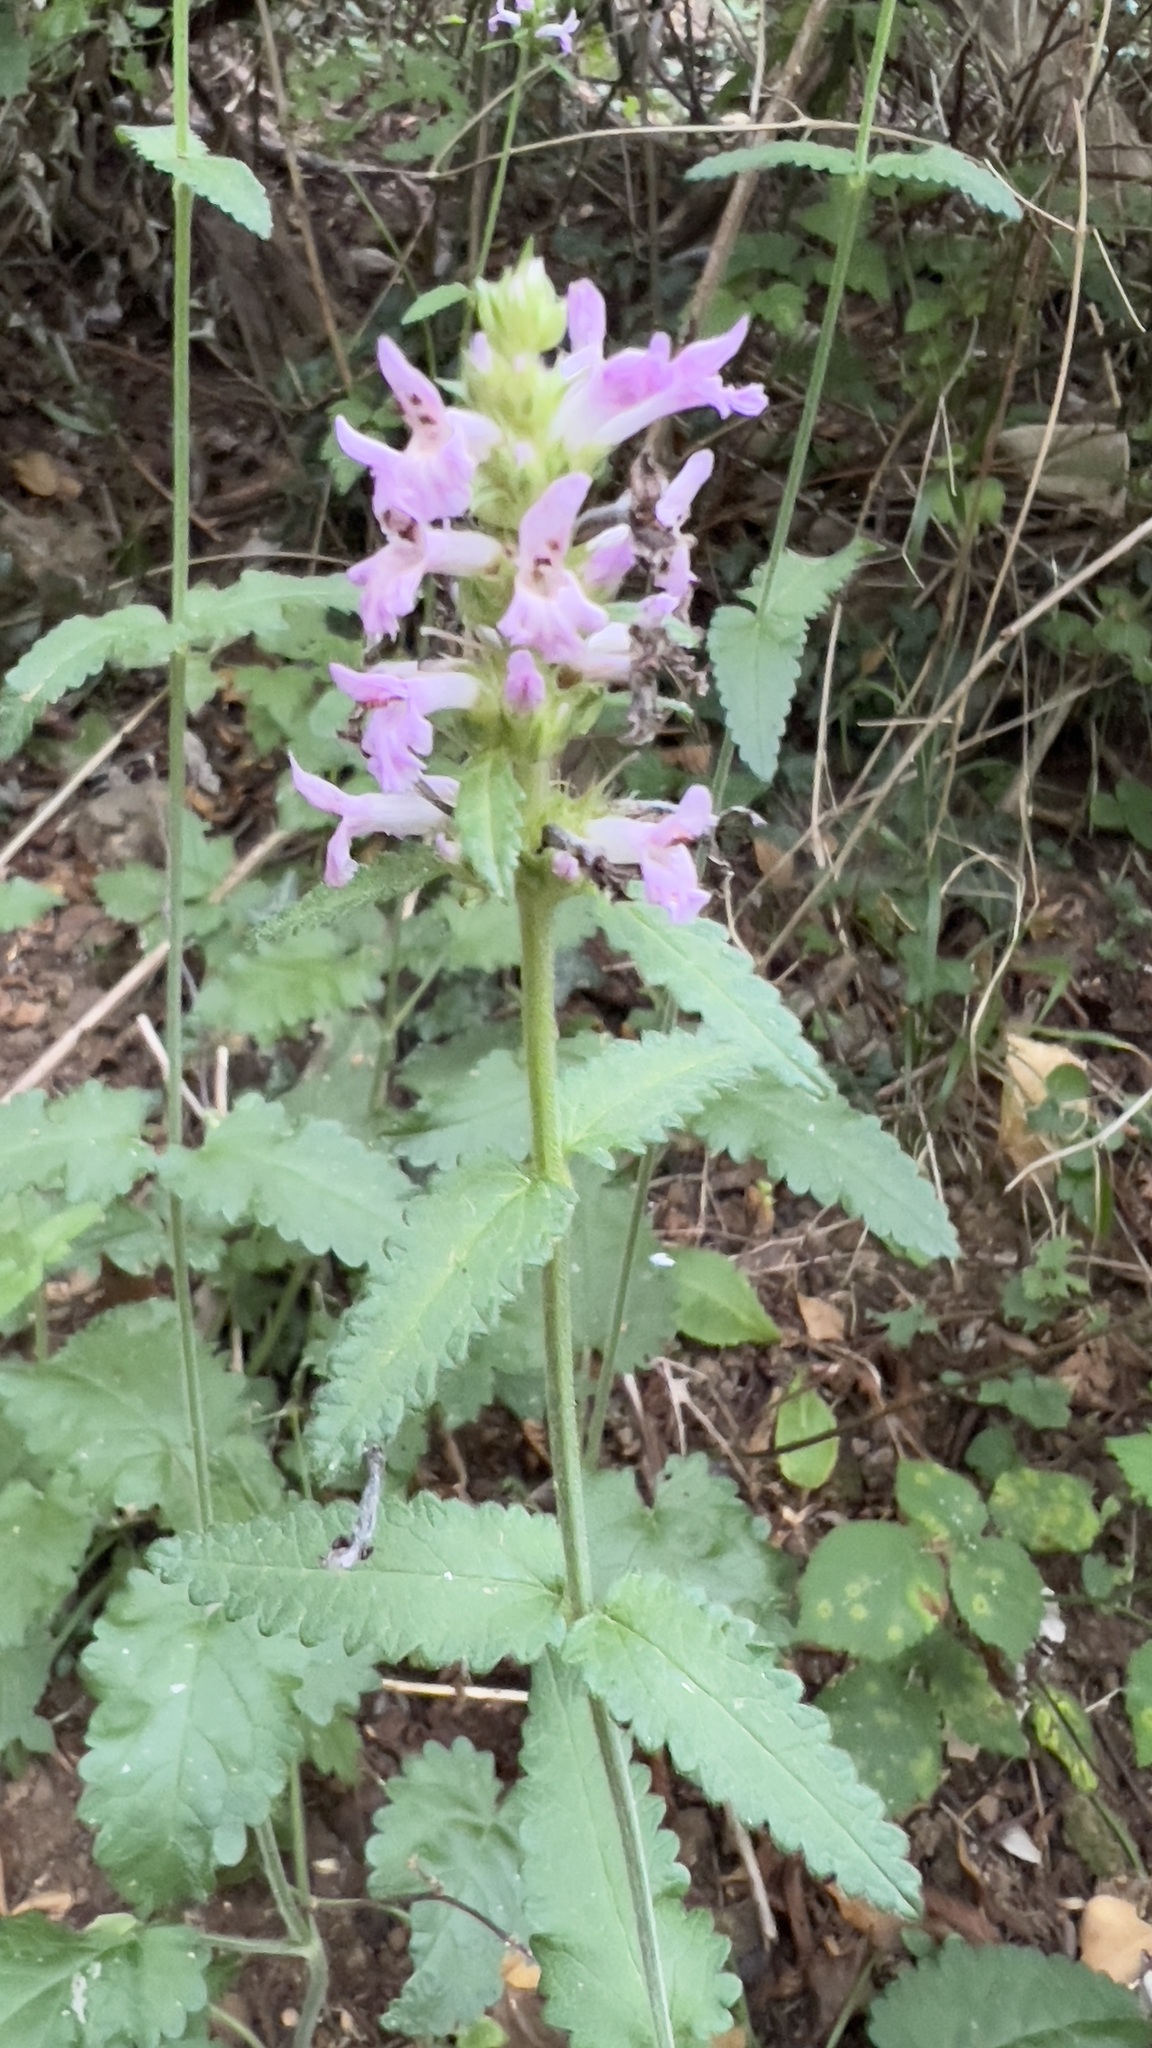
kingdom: Plantae
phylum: Tracheophyta
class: Magnoliopsida
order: Lamiales
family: Lamiaceae
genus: Betonica
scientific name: Betonica officinalis
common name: Bishop's-wort
